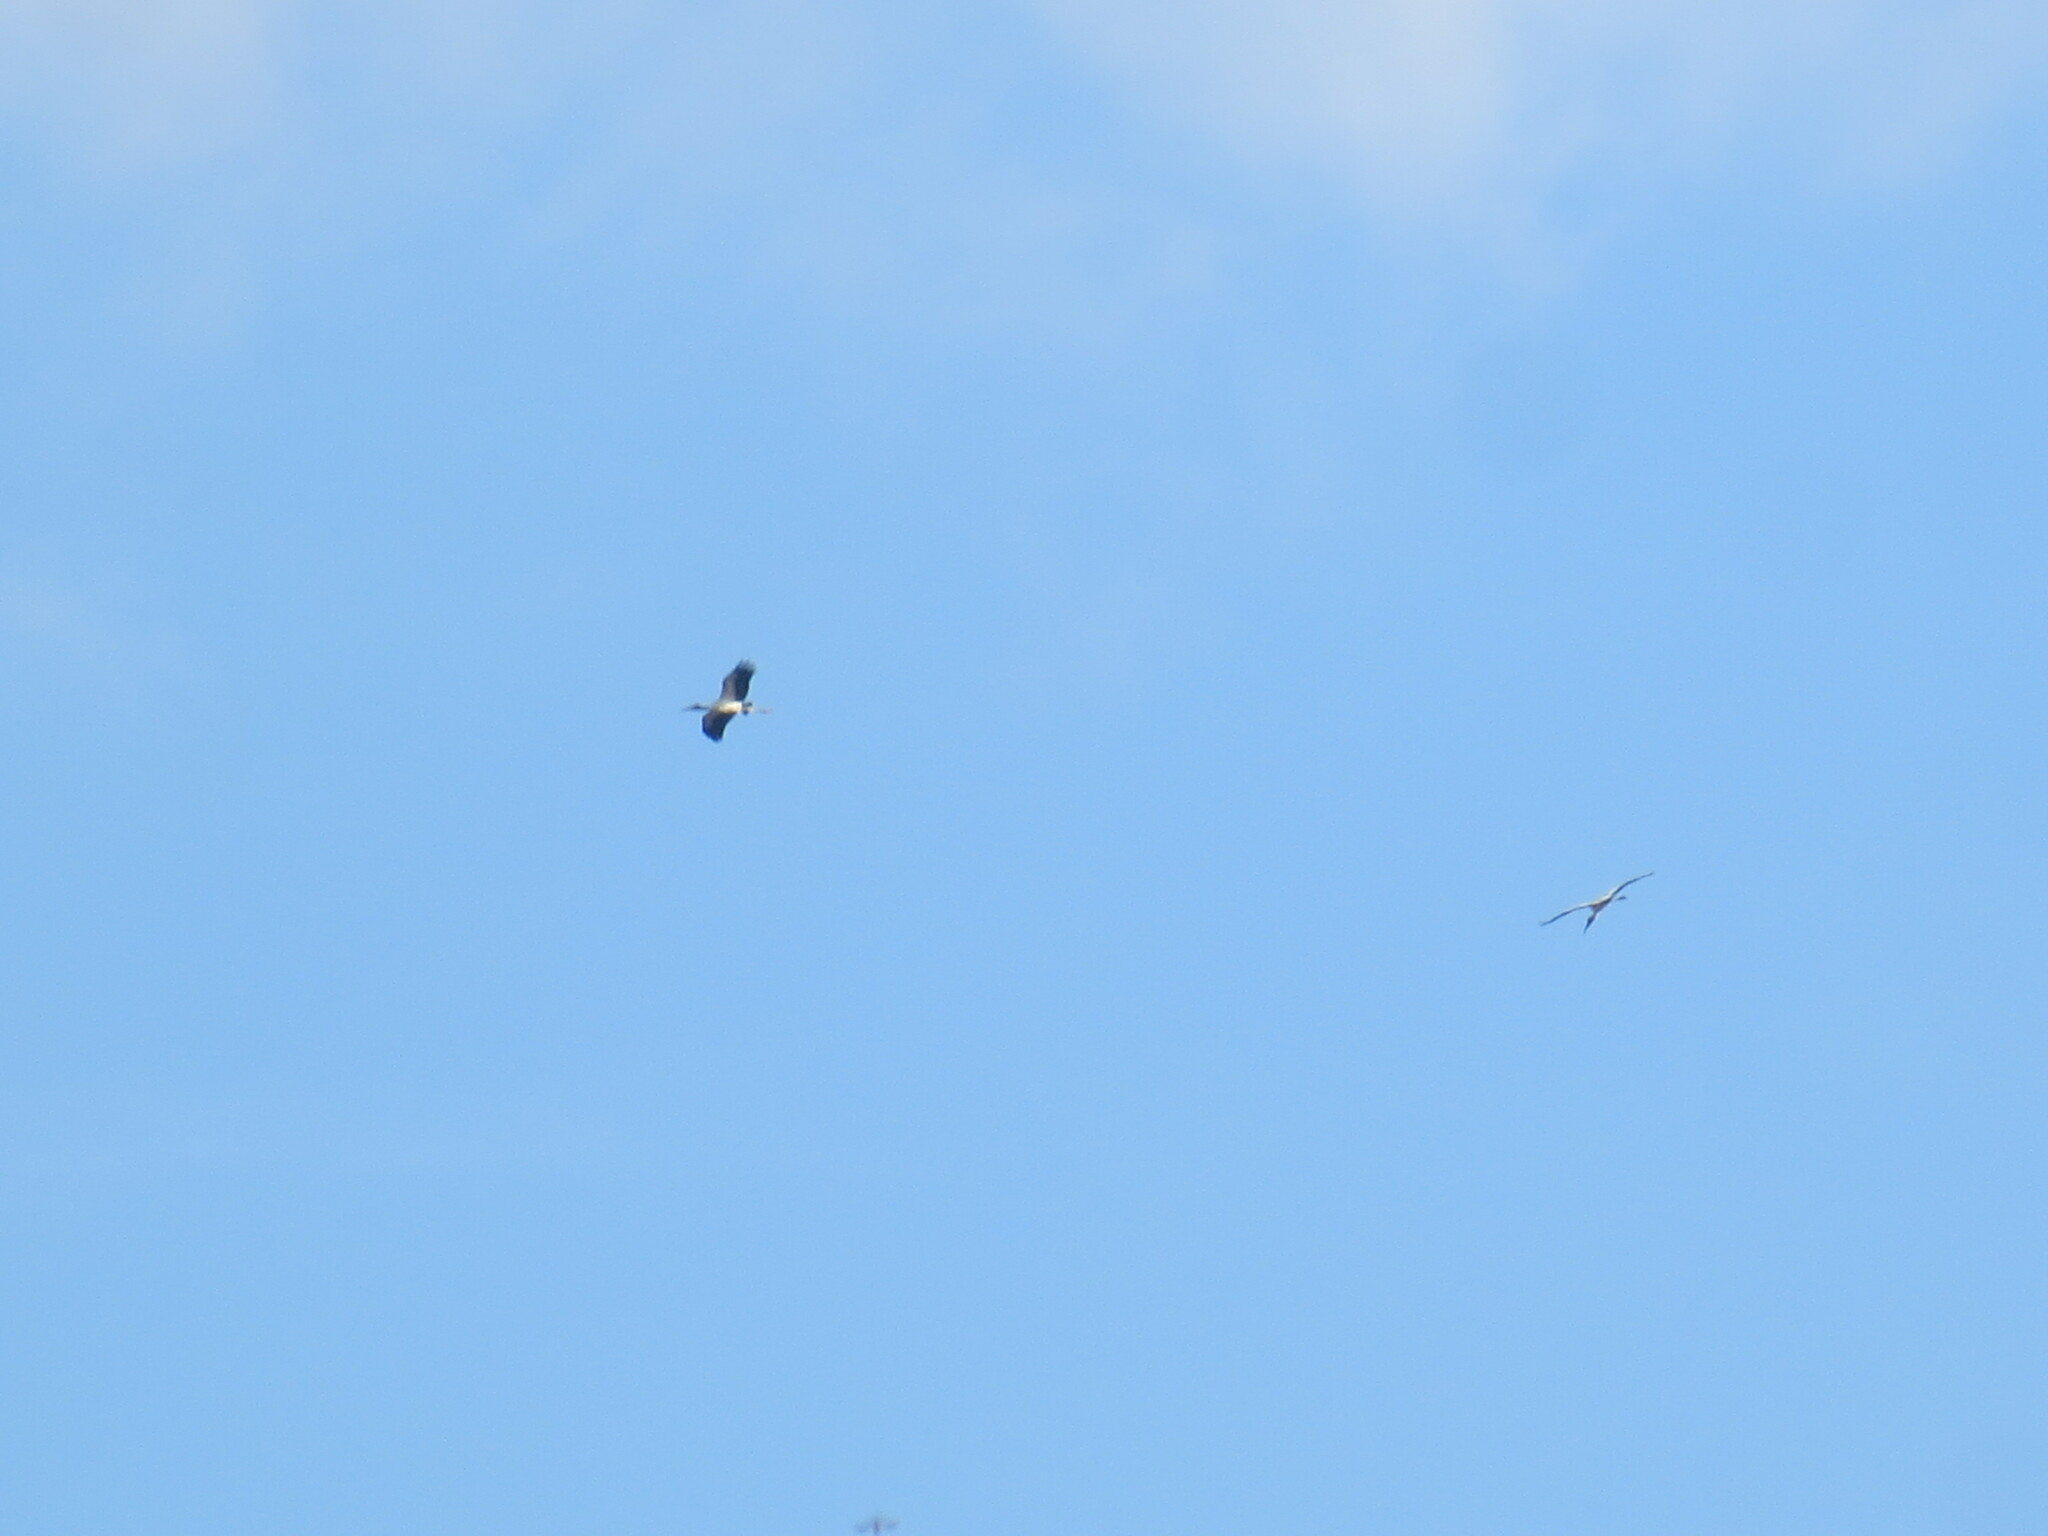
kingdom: Animalia
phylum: Chordata
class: Aves
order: Ciconiiformes
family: Ciconiidae
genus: Mycteria
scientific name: Mycteria americana
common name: Wood stork
